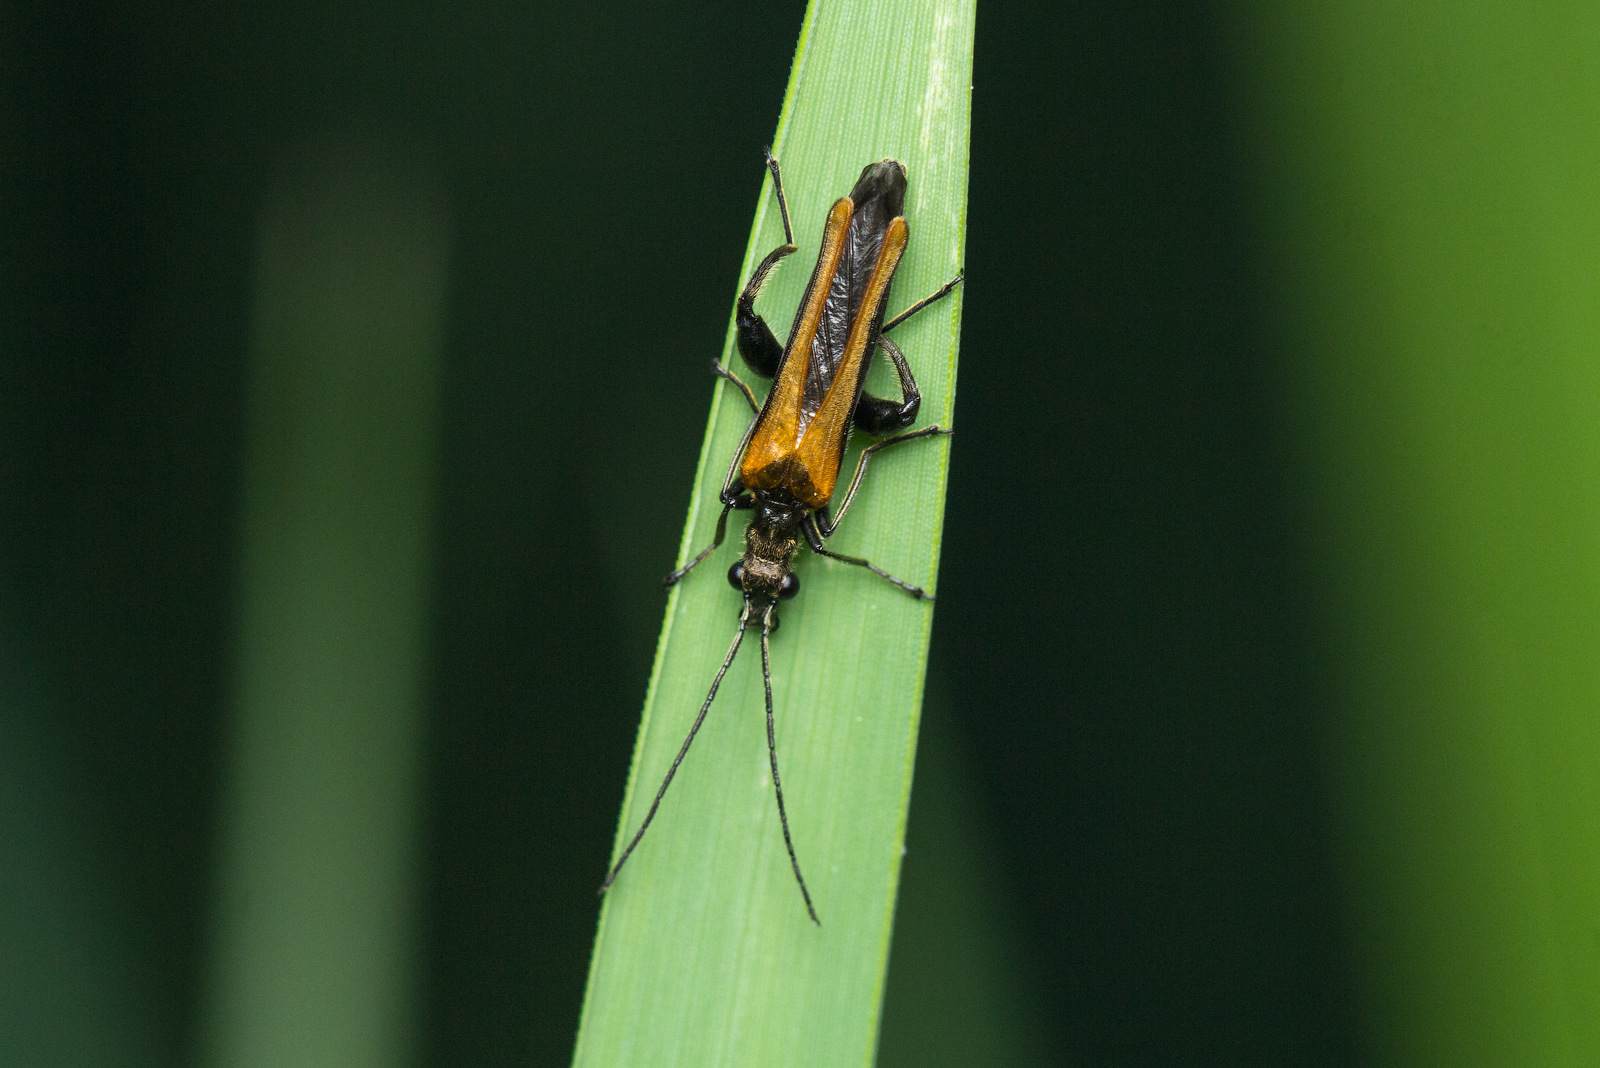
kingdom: Animalia
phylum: Arthropoda
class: Insecta
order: Coleoptera
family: Oedemeridae
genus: Oedemera
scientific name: Oedemera femorata
